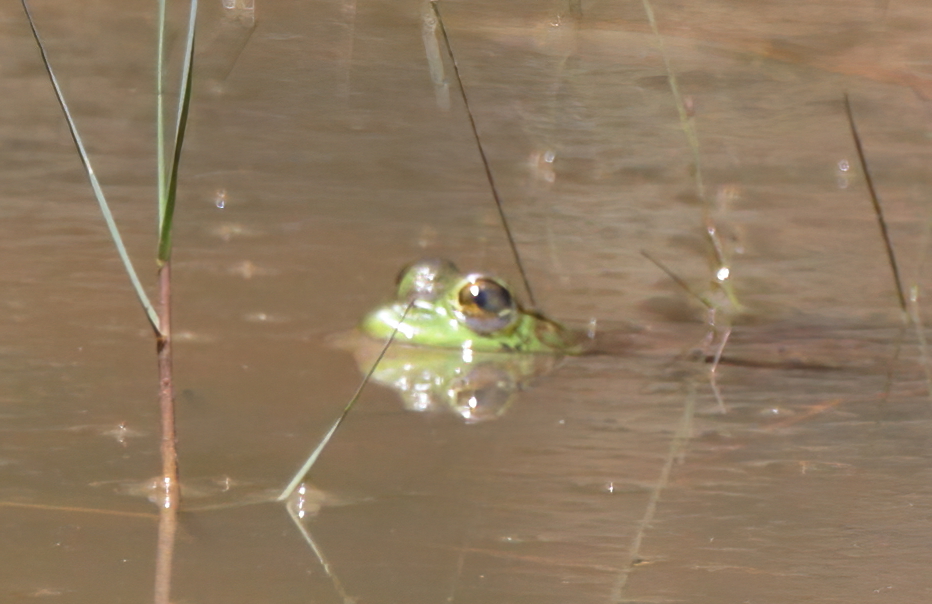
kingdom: Animalia
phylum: Chordata
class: Amphibia
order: Anura
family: Ranidae
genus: Lithobates
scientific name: Lithobates catesbeianus
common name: American bullfrog
